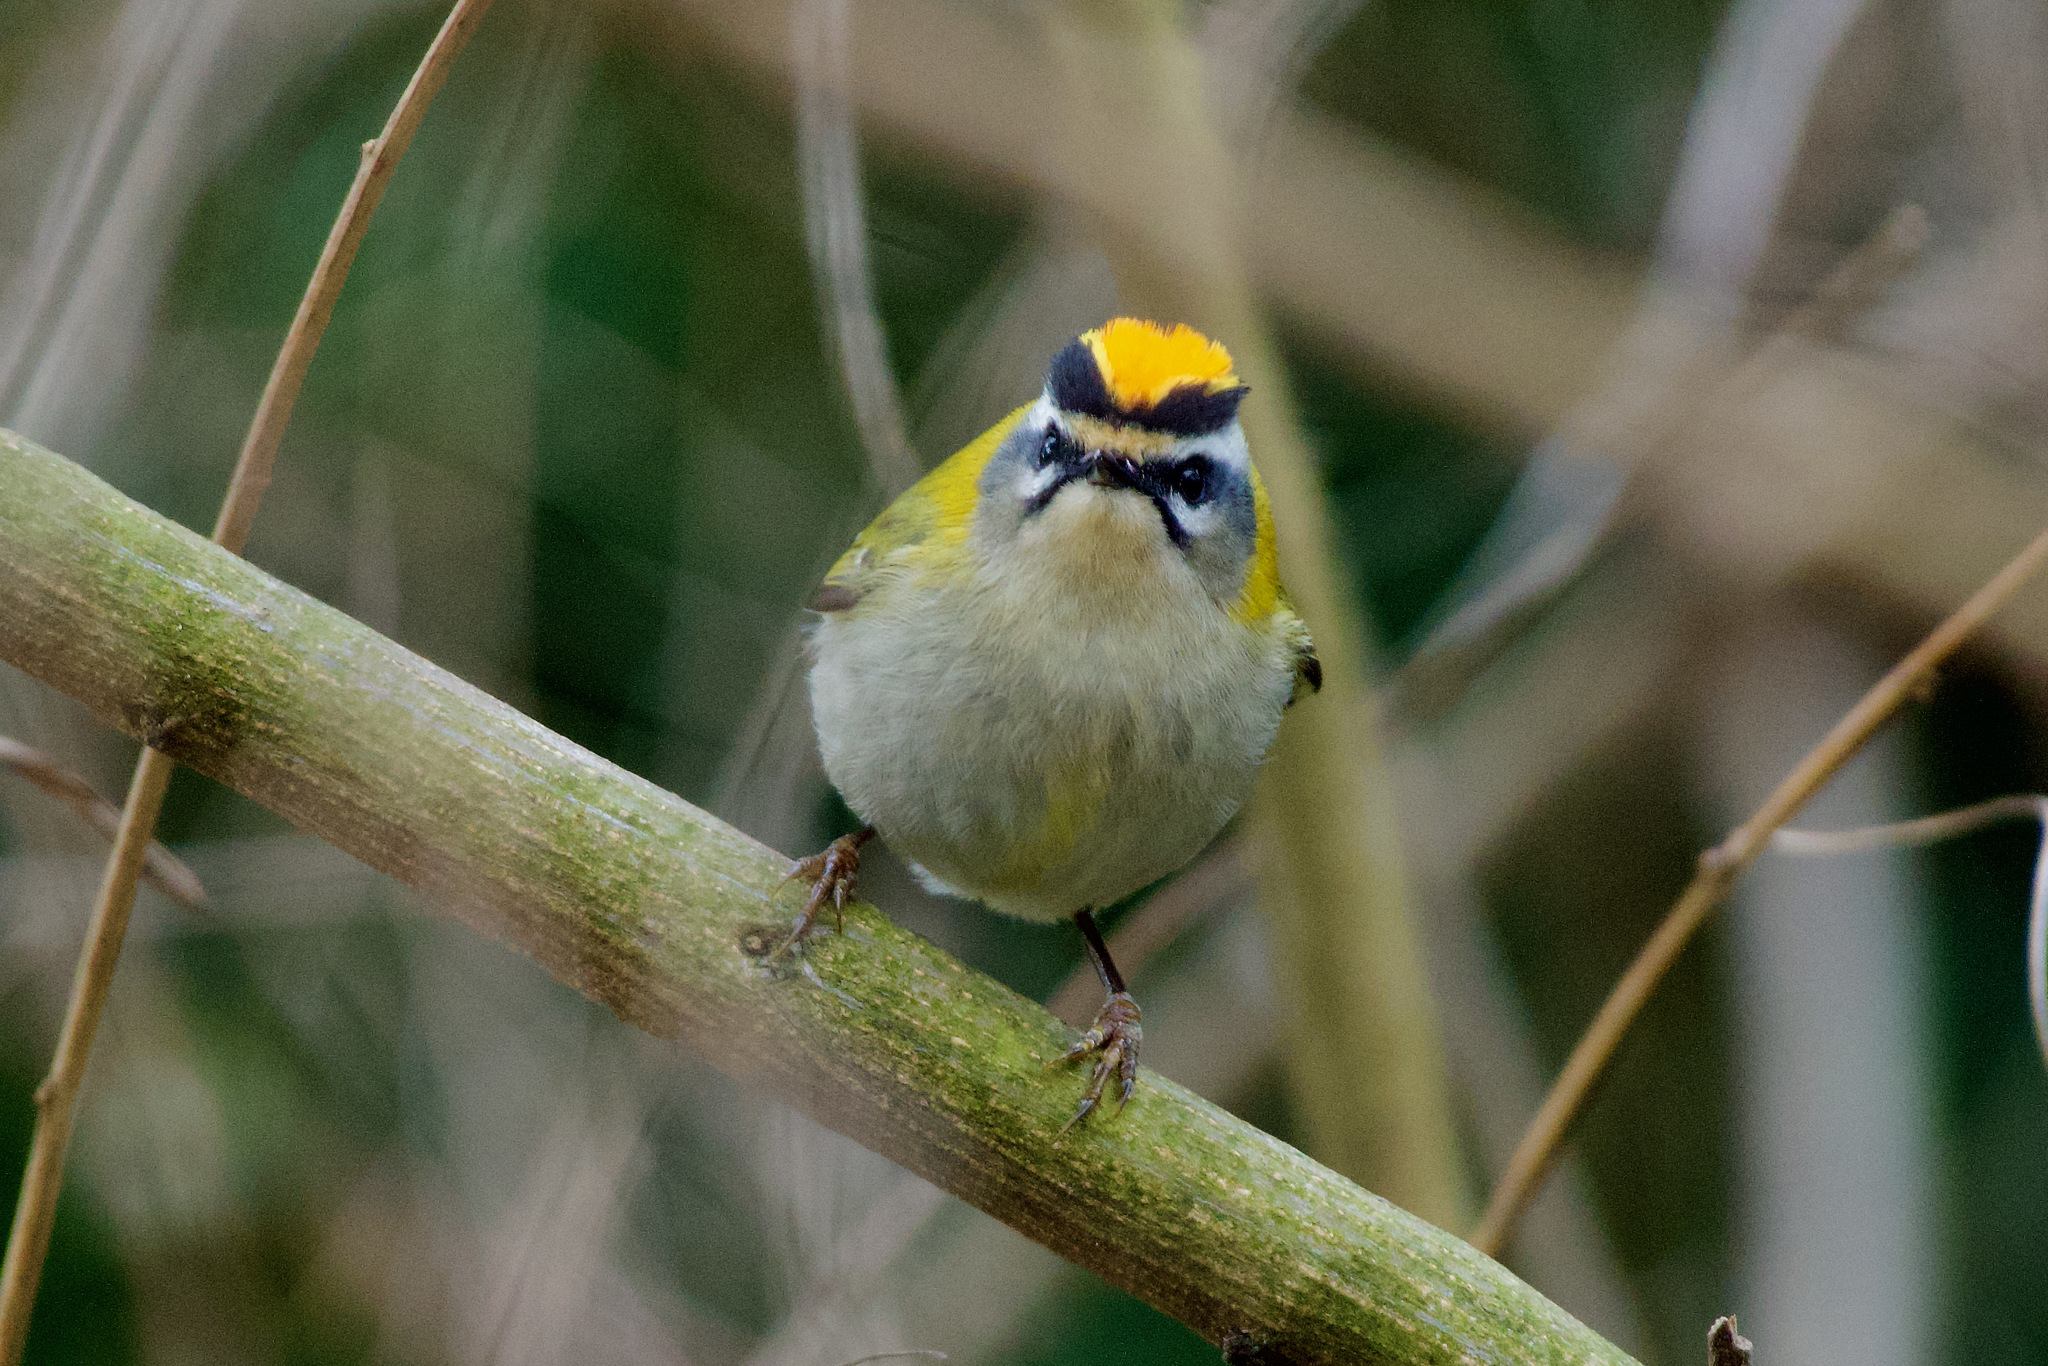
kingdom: Animalia
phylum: Chordata
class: Aves
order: Passeriformes
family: Regulidae
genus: Regulus
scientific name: Regulus ignicapilla
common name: Firecrest
